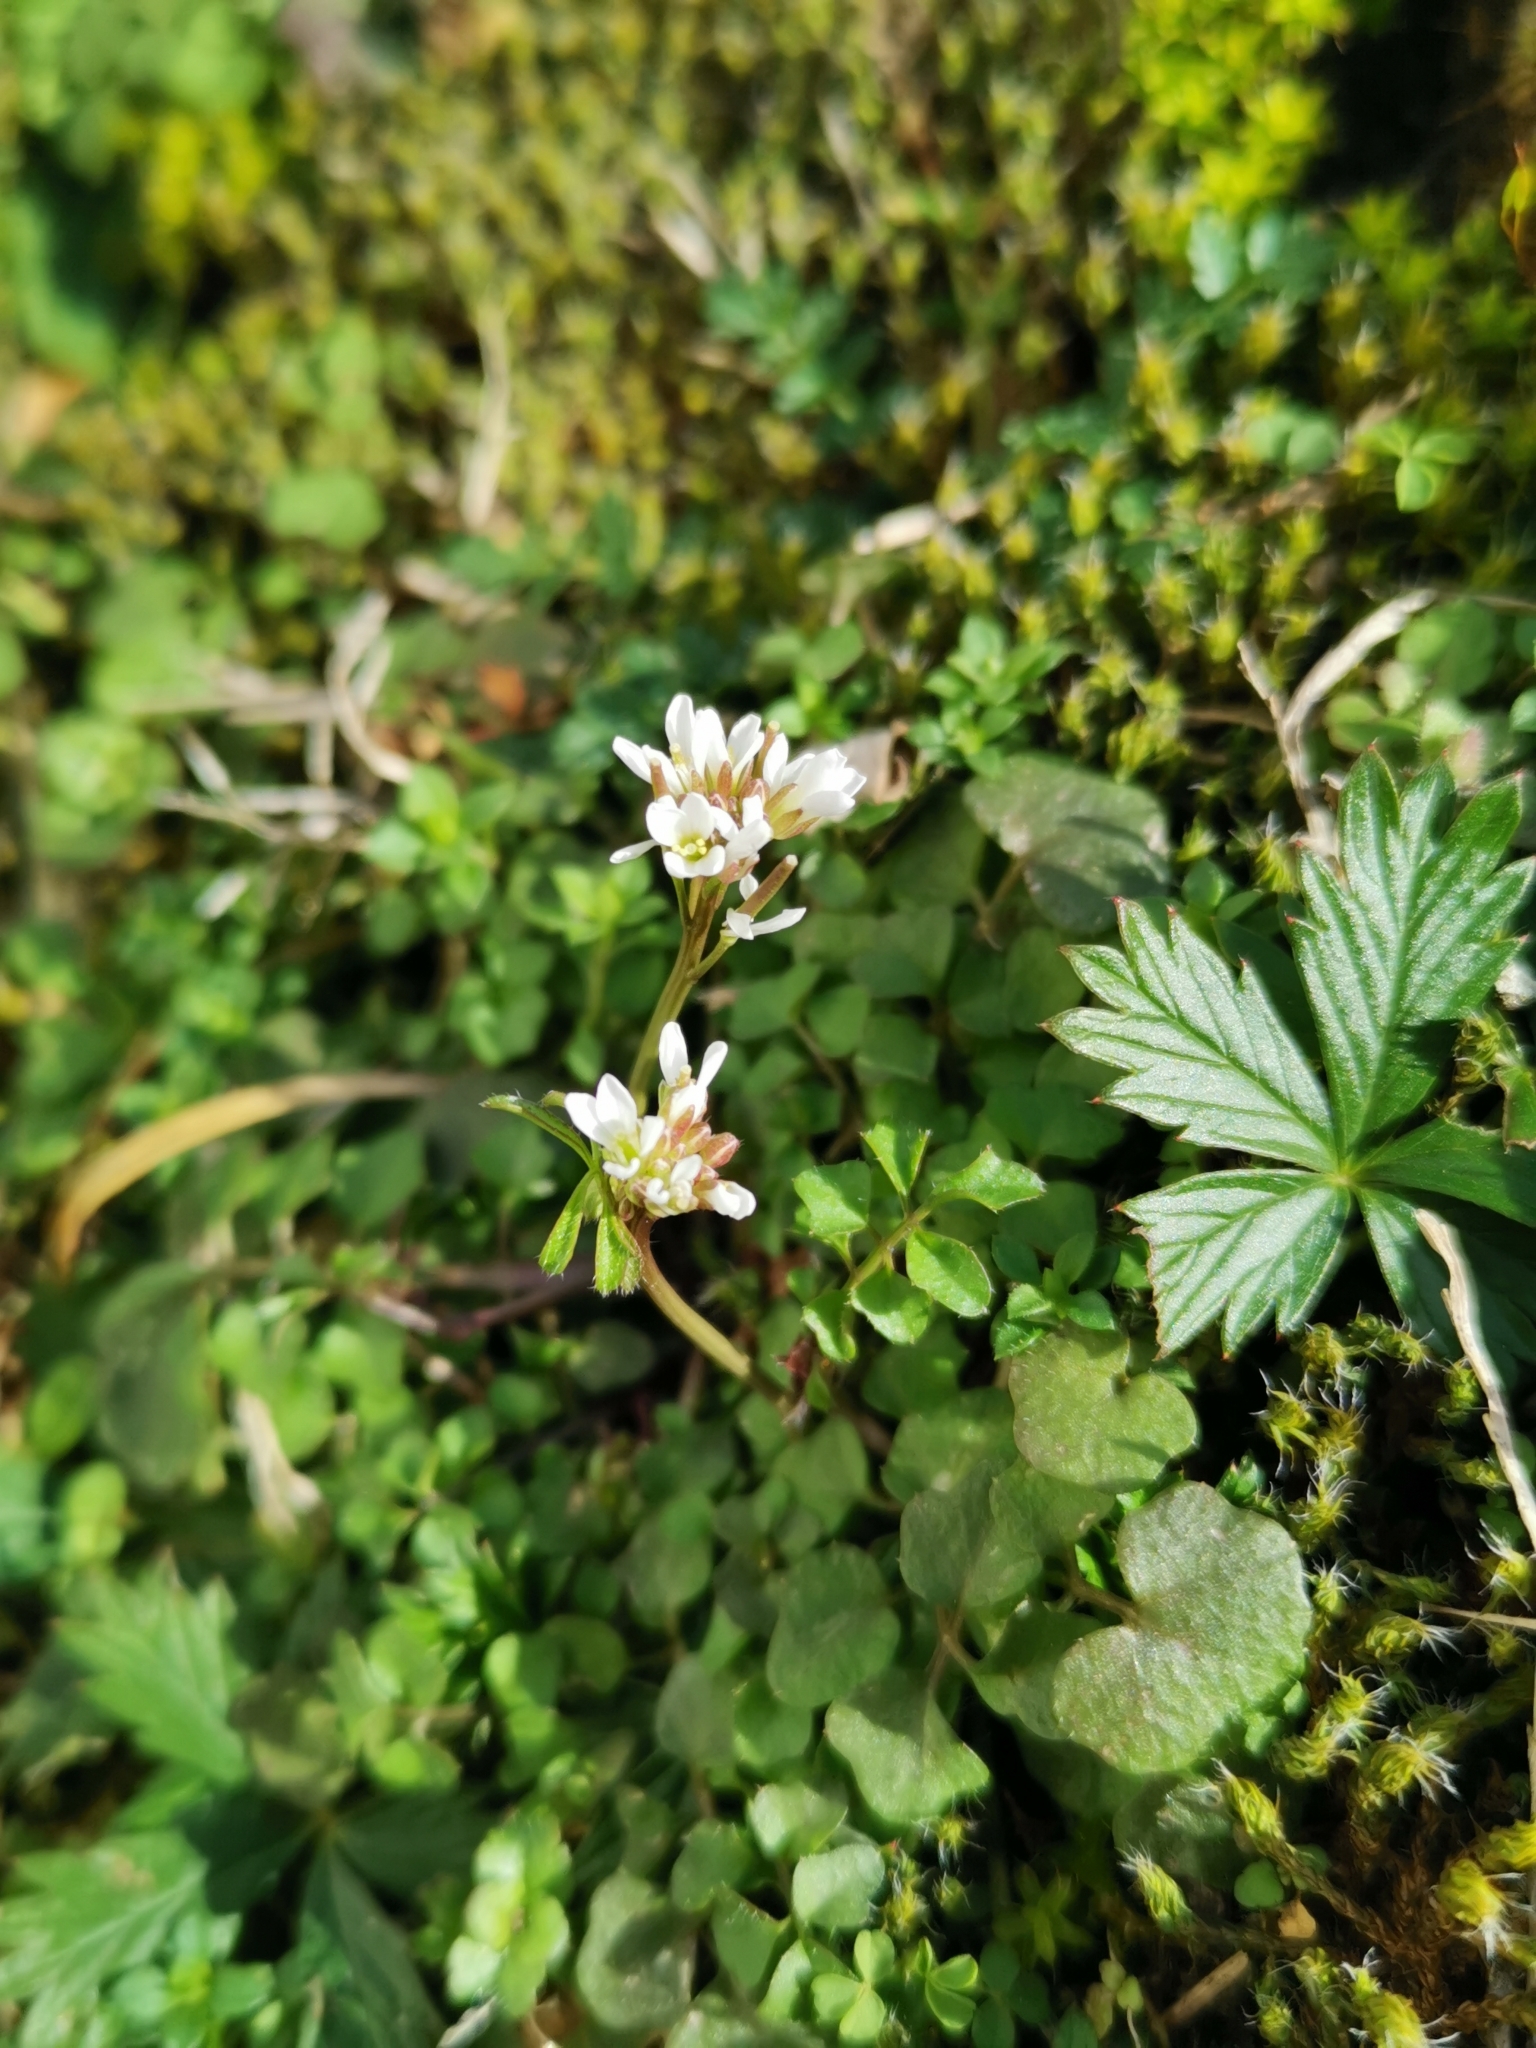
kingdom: Plantae
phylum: Tracheophyta
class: Magnoliopsida
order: Brassicales
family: Brassicaceae
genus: Cardamine
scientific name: Cardamine hirsuta
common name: Hairy bittercress
